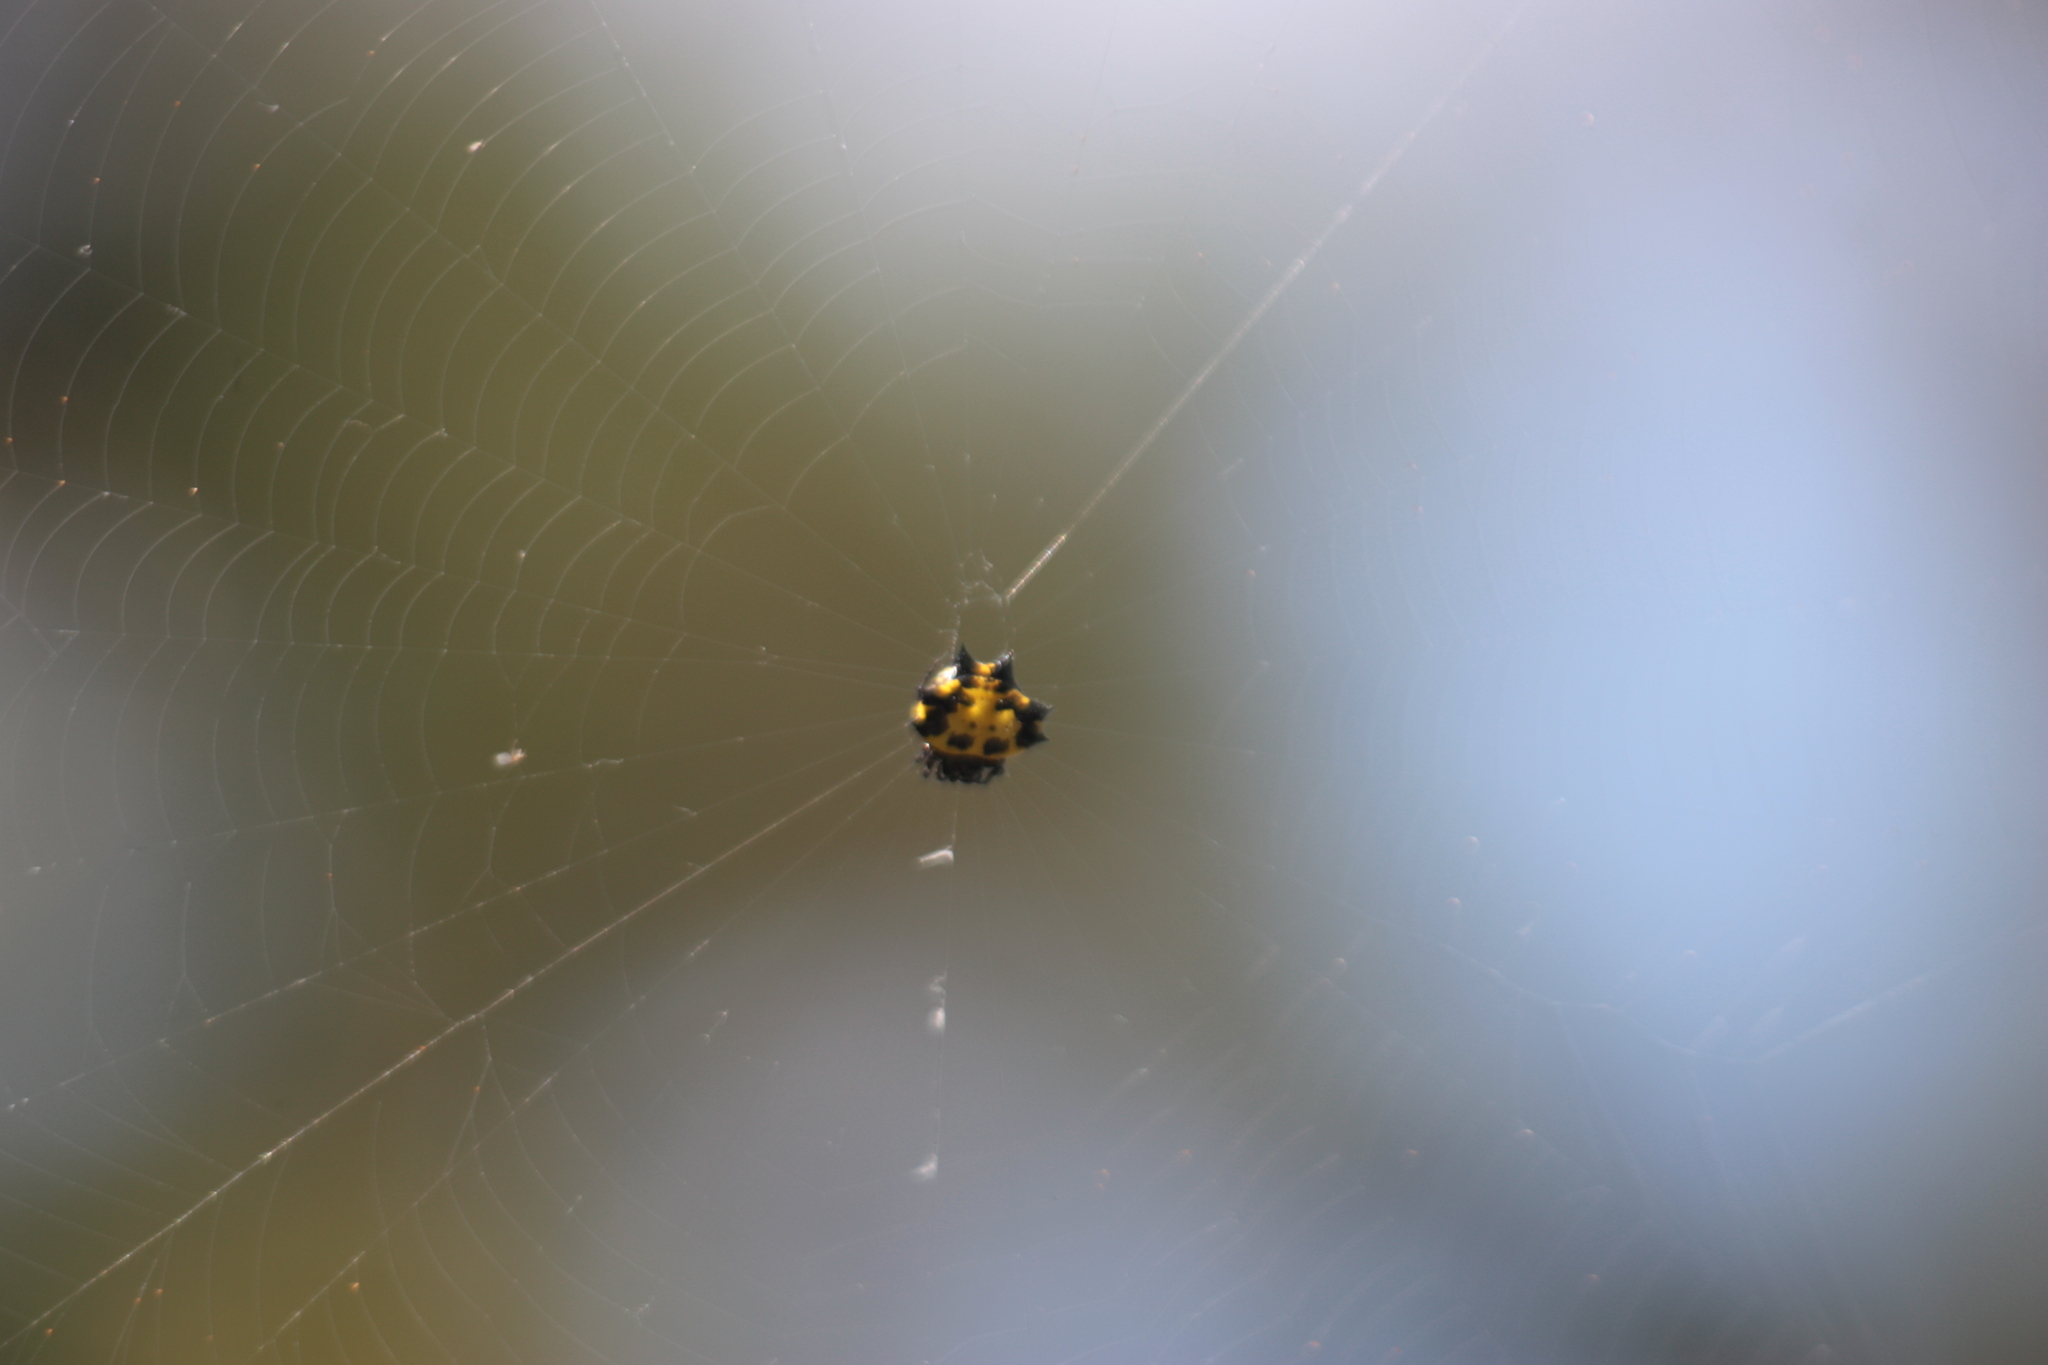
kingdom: Animalia
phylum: Arthropoda
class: Arachnida
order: Araneae
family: Araneidae
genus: Gasteracantha
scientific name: Gasteracantha kuhli
